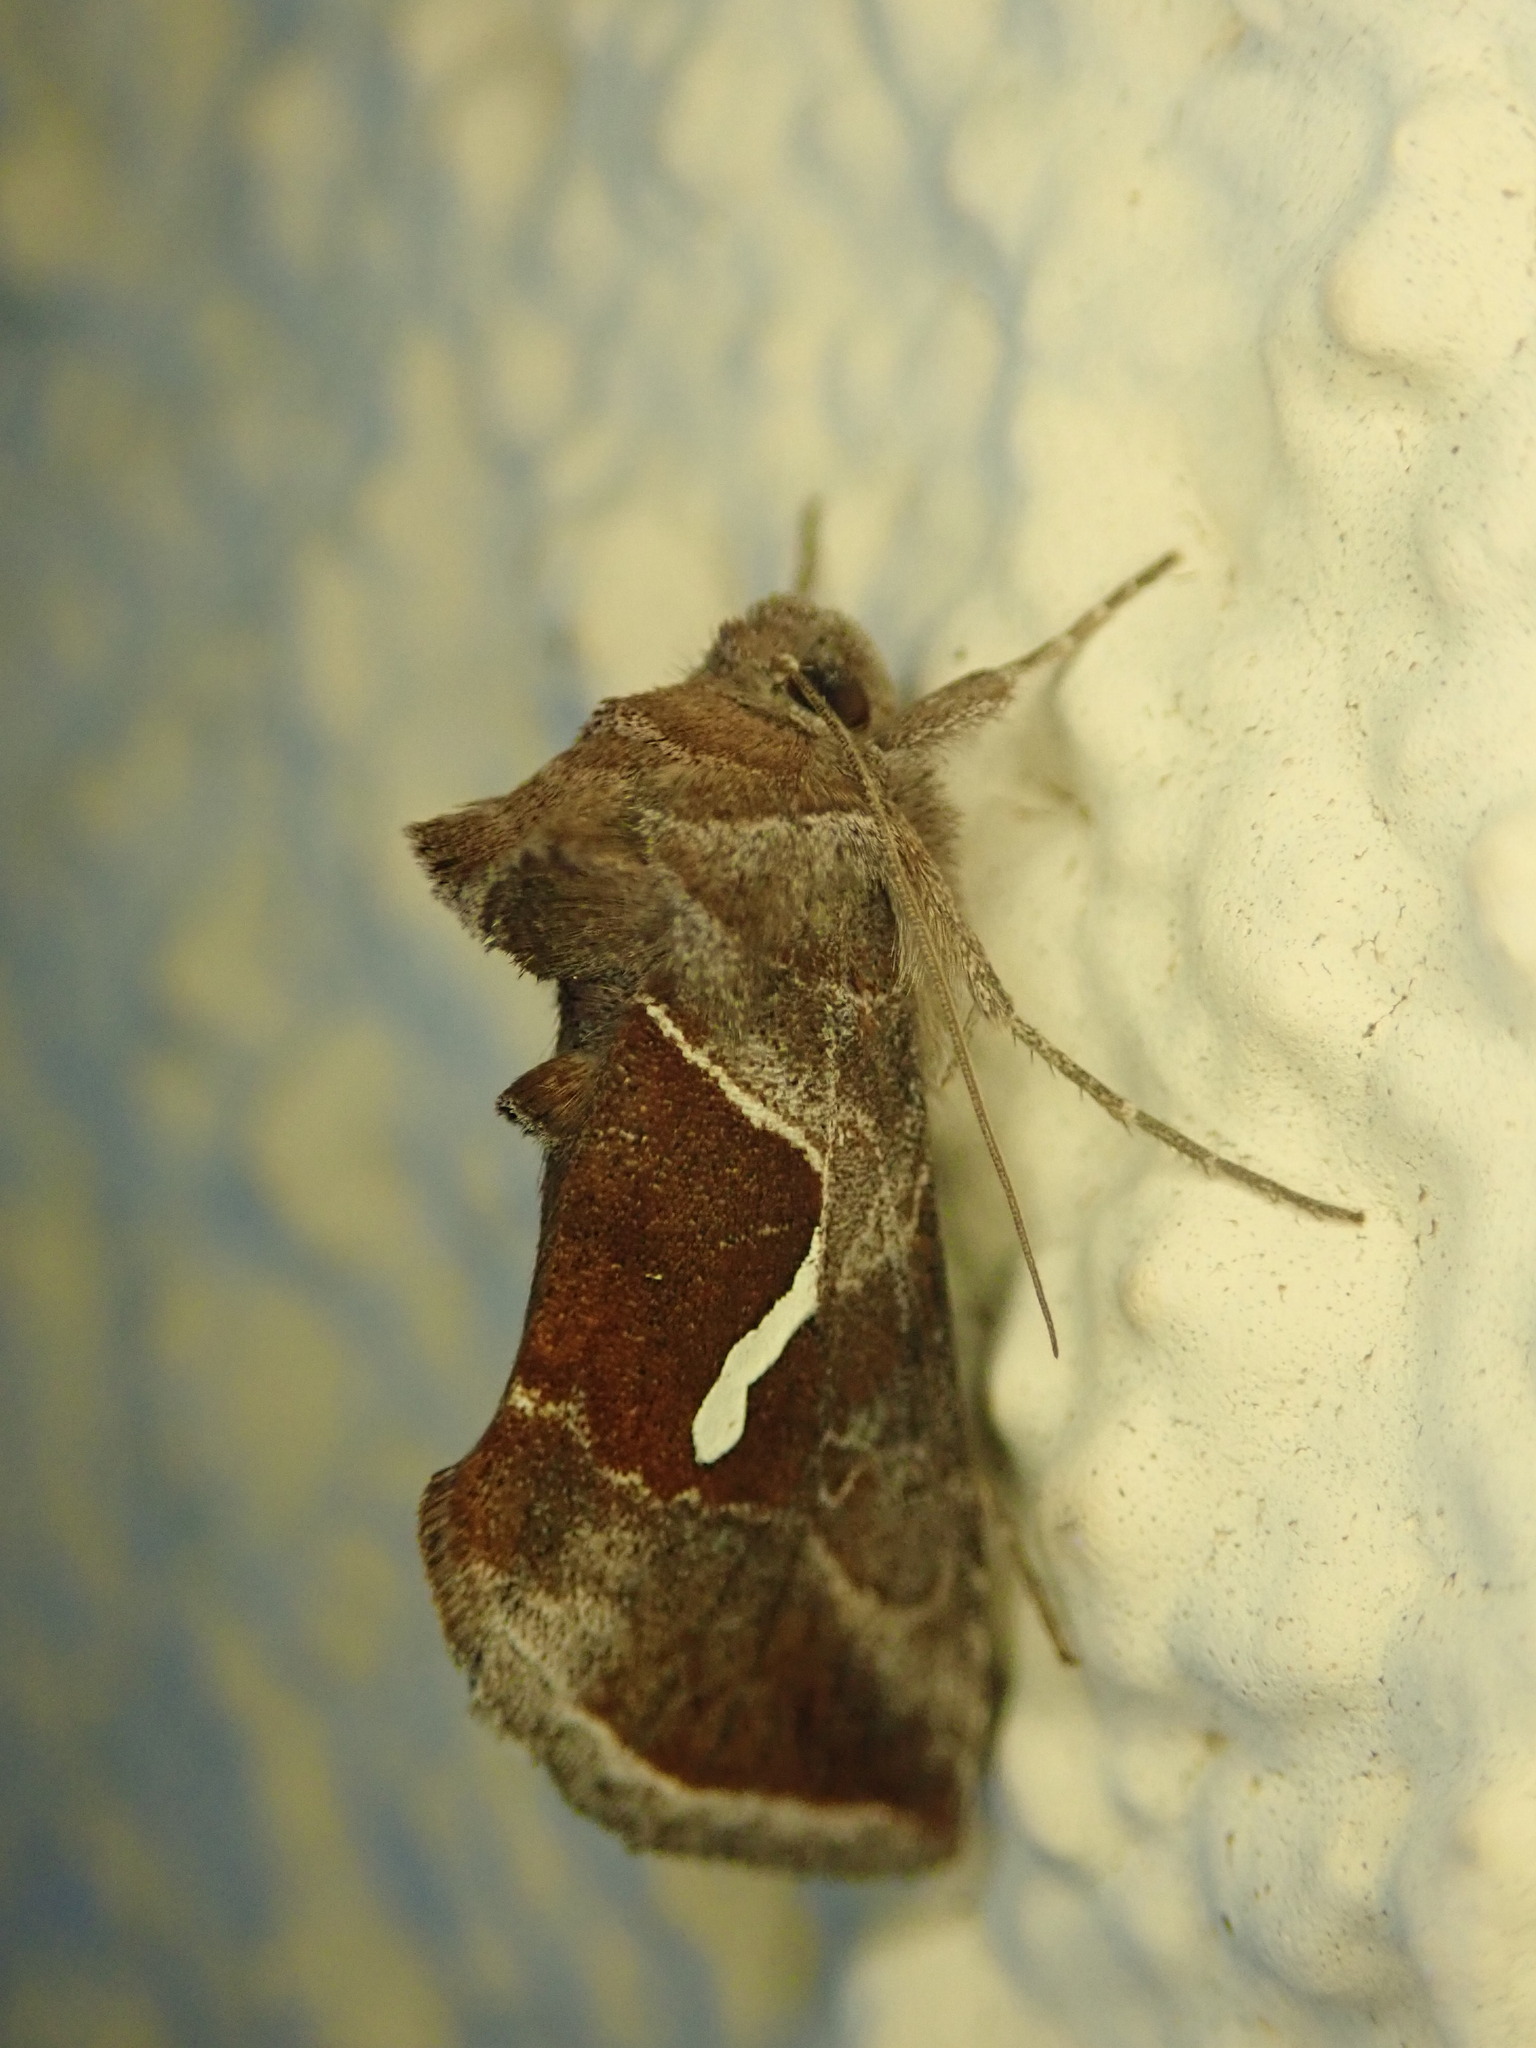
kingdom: Animalia
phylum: Arthropoda
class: Insecta
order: Lepidoptera
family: Noctuidae
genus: Macdunnoughia
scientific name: Macdunnoughia confusa
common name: Dewick's plusia
